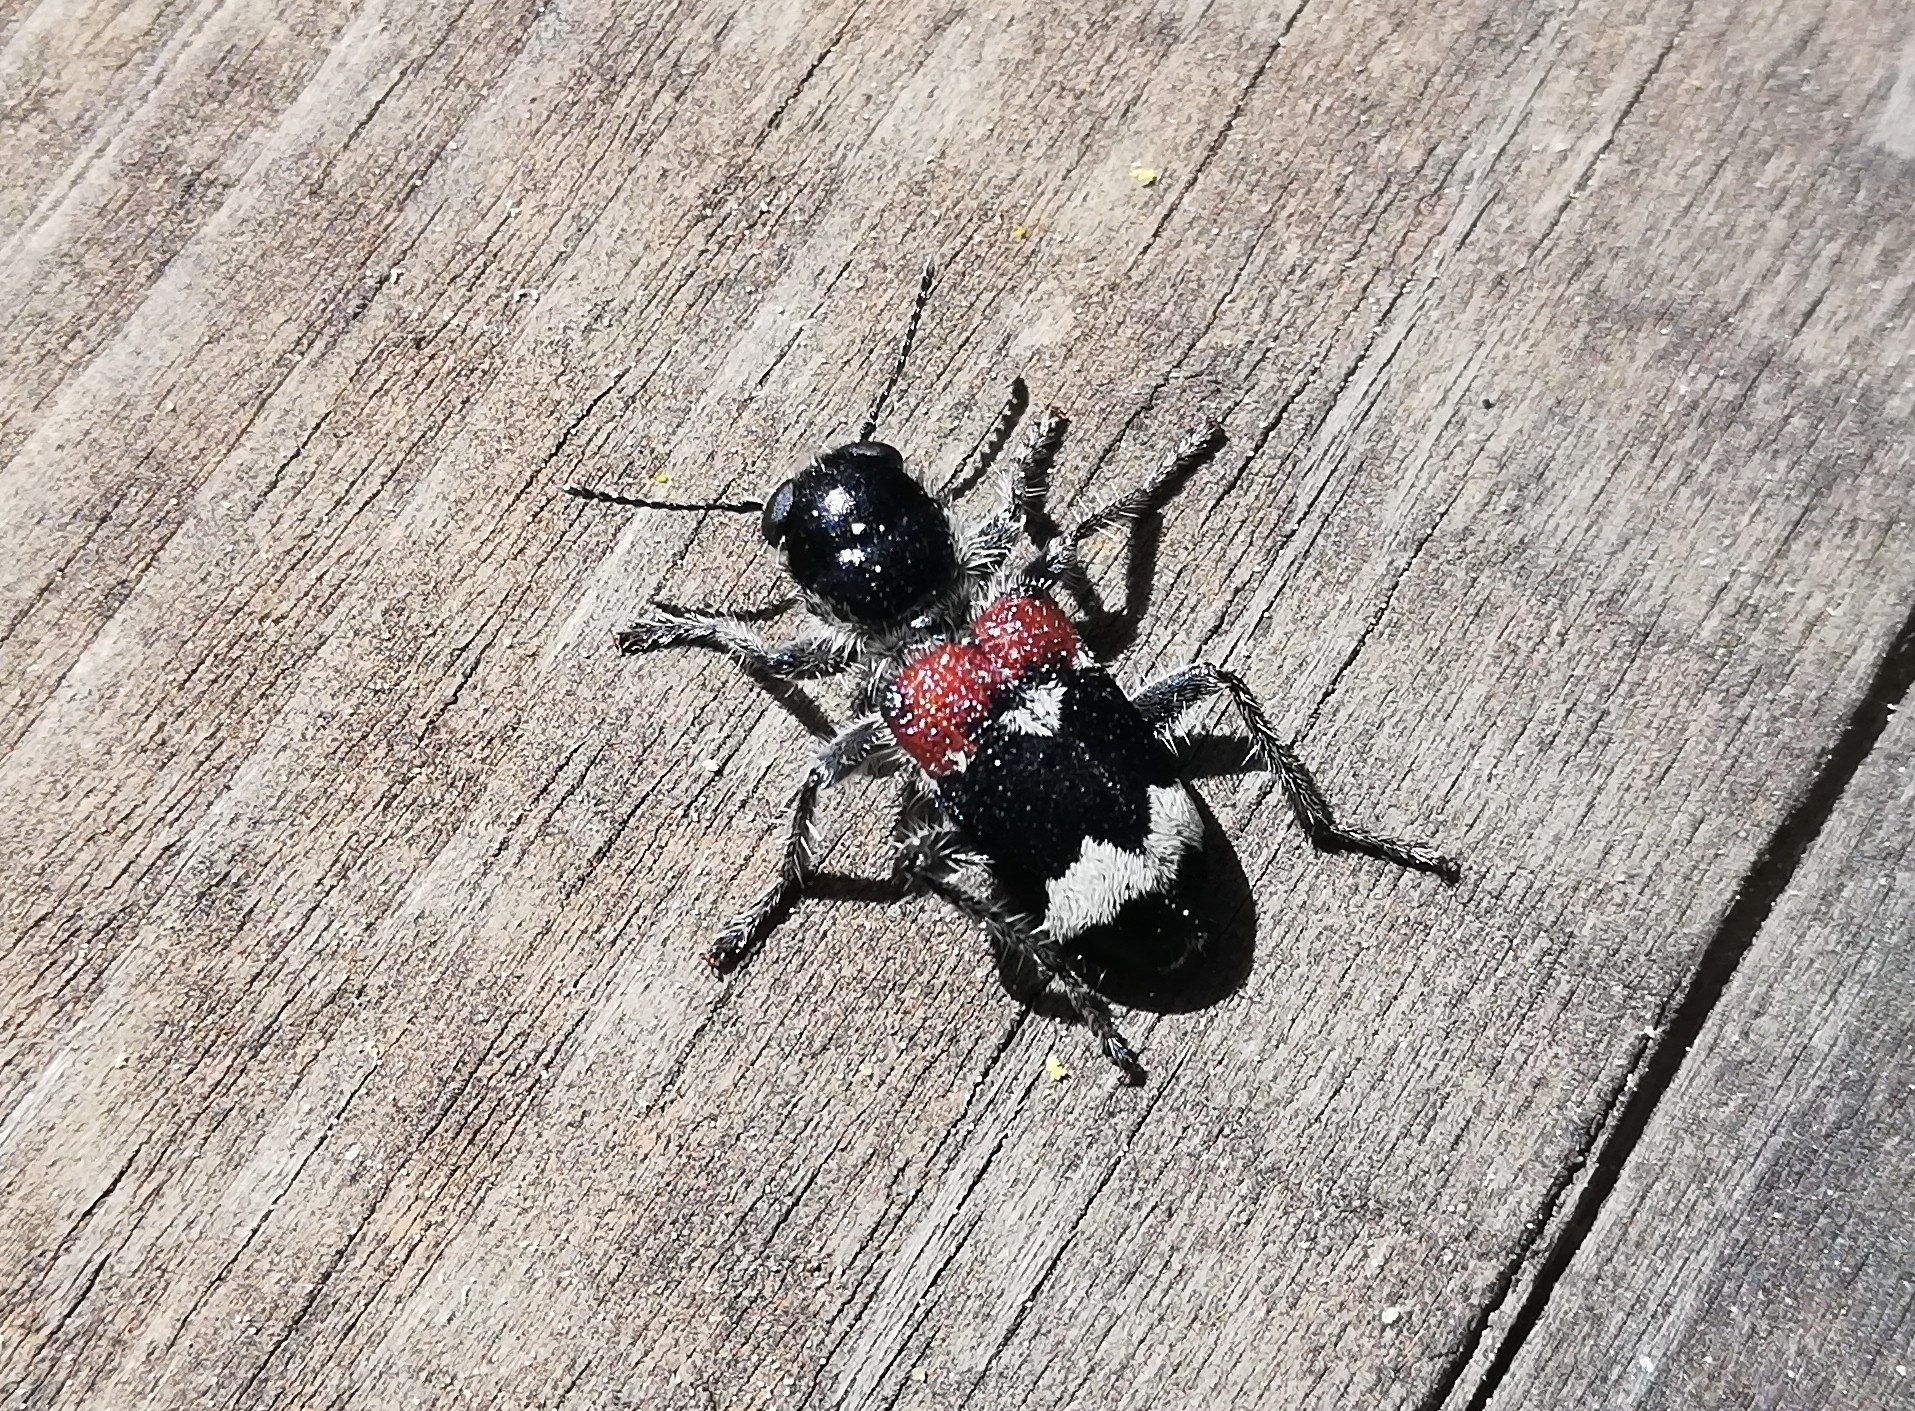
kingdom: Animalia
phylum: Arthropoda
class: Insecta
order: Coleoptera
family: Cleridae
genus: Clerus
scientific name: Clerus mutillarius
